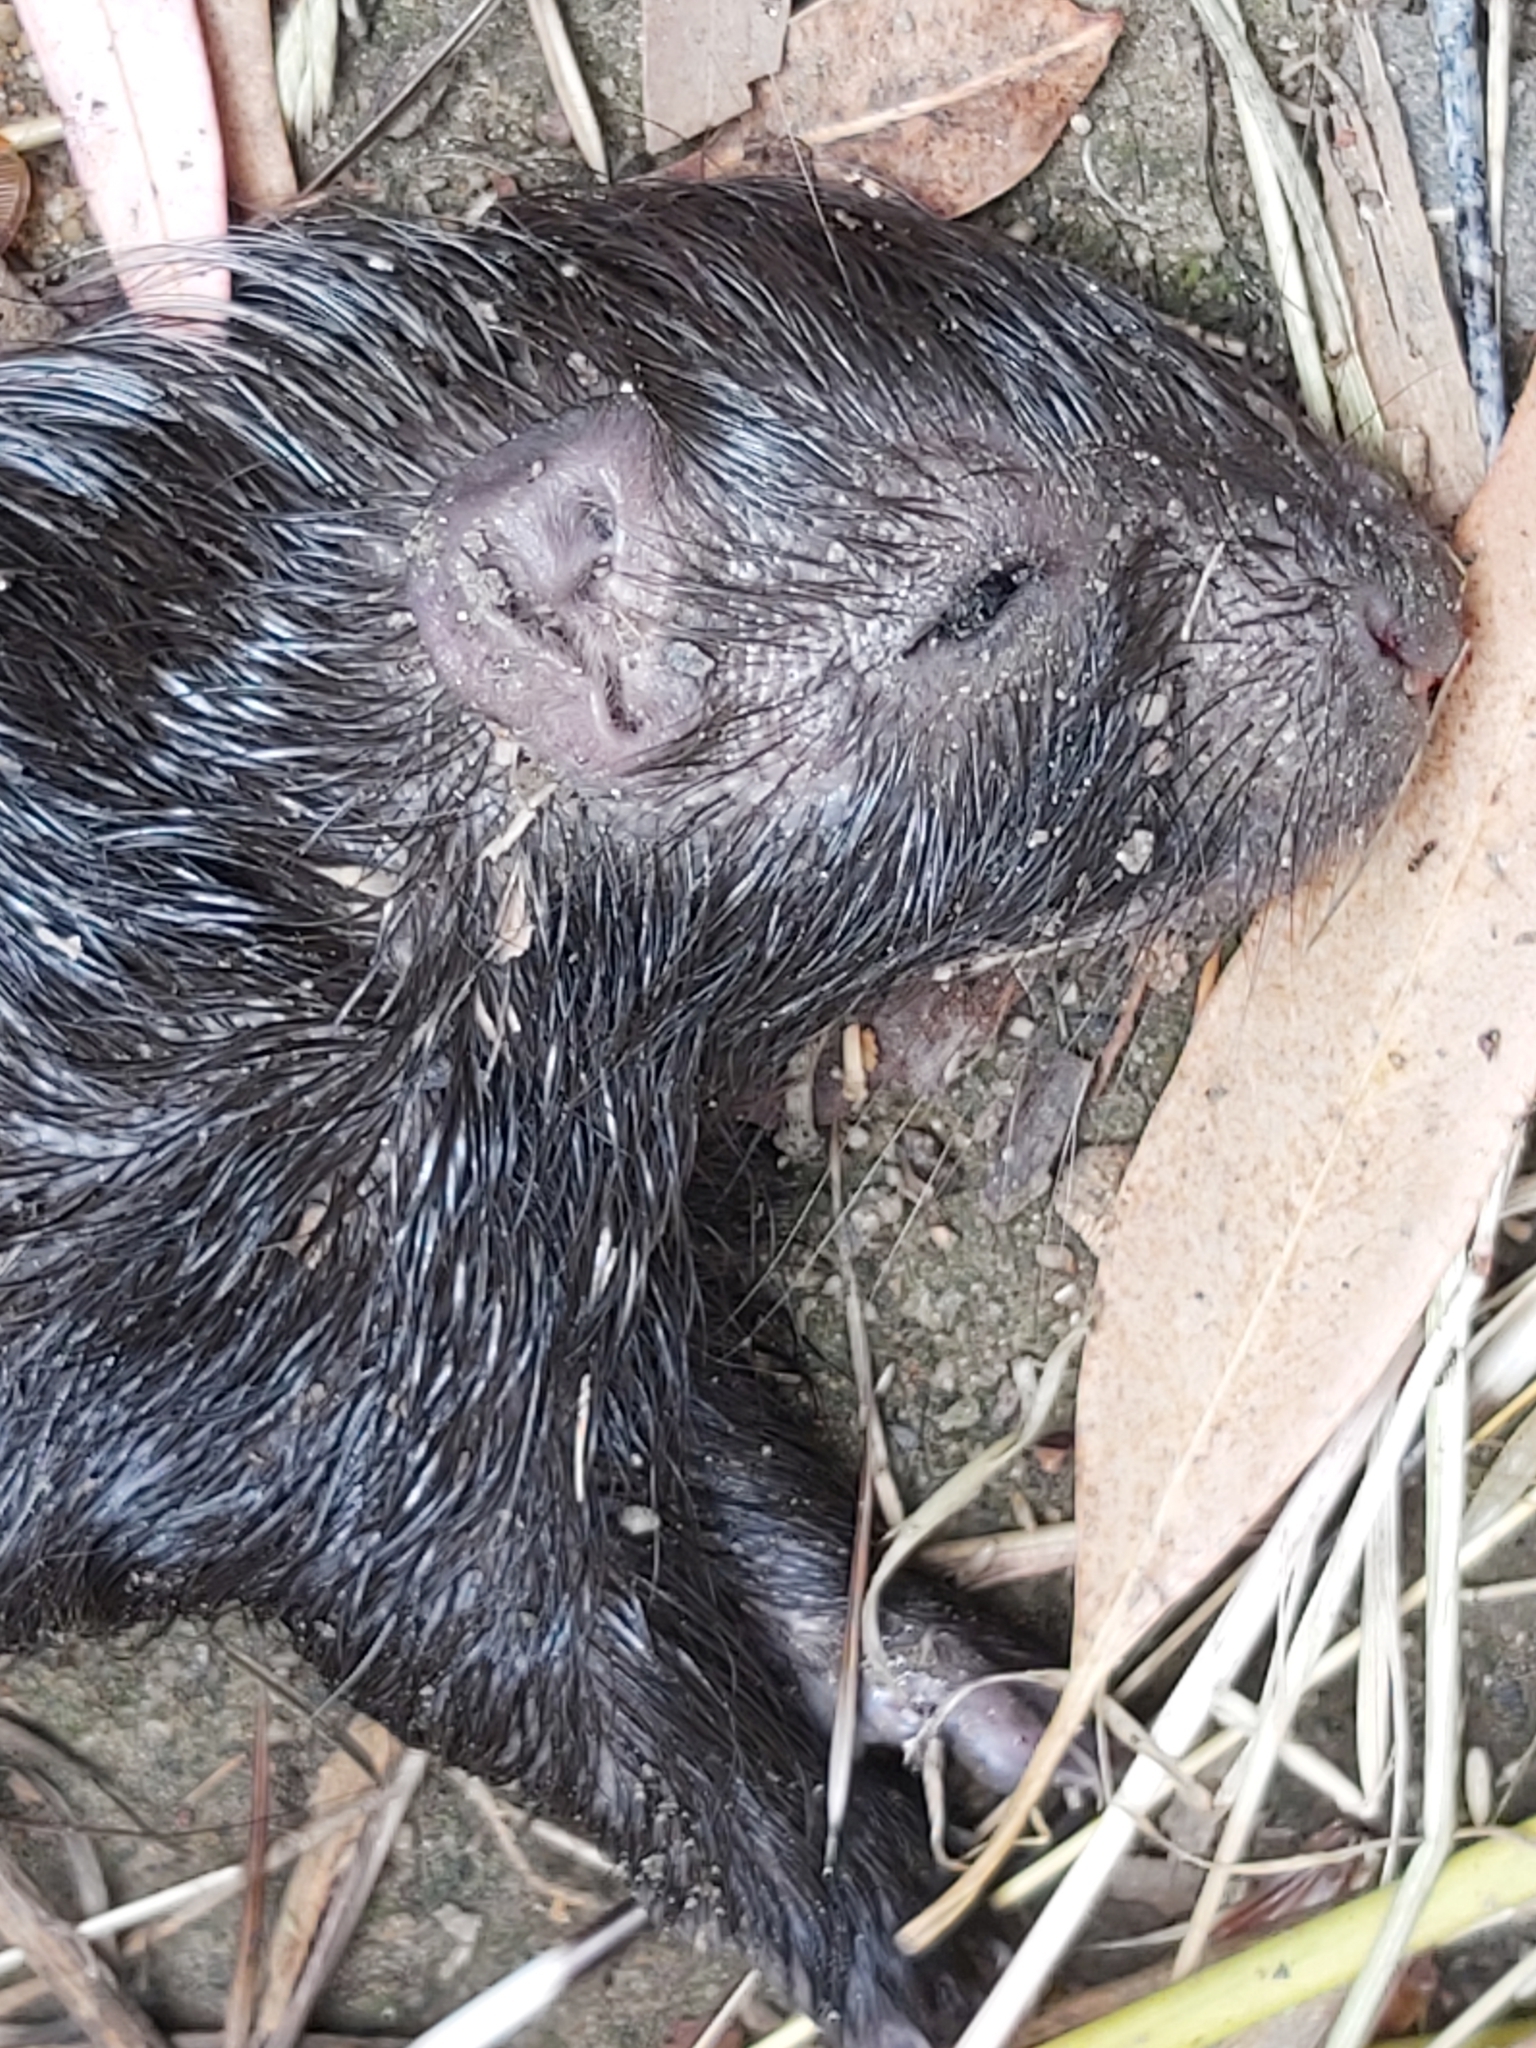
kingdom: Animalia
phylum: Chordata
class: Mammalia
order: Rodentia
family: Hystricidae
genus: Hystrix
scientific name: Hystrix africaeaustralis
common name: Cape porcupine
